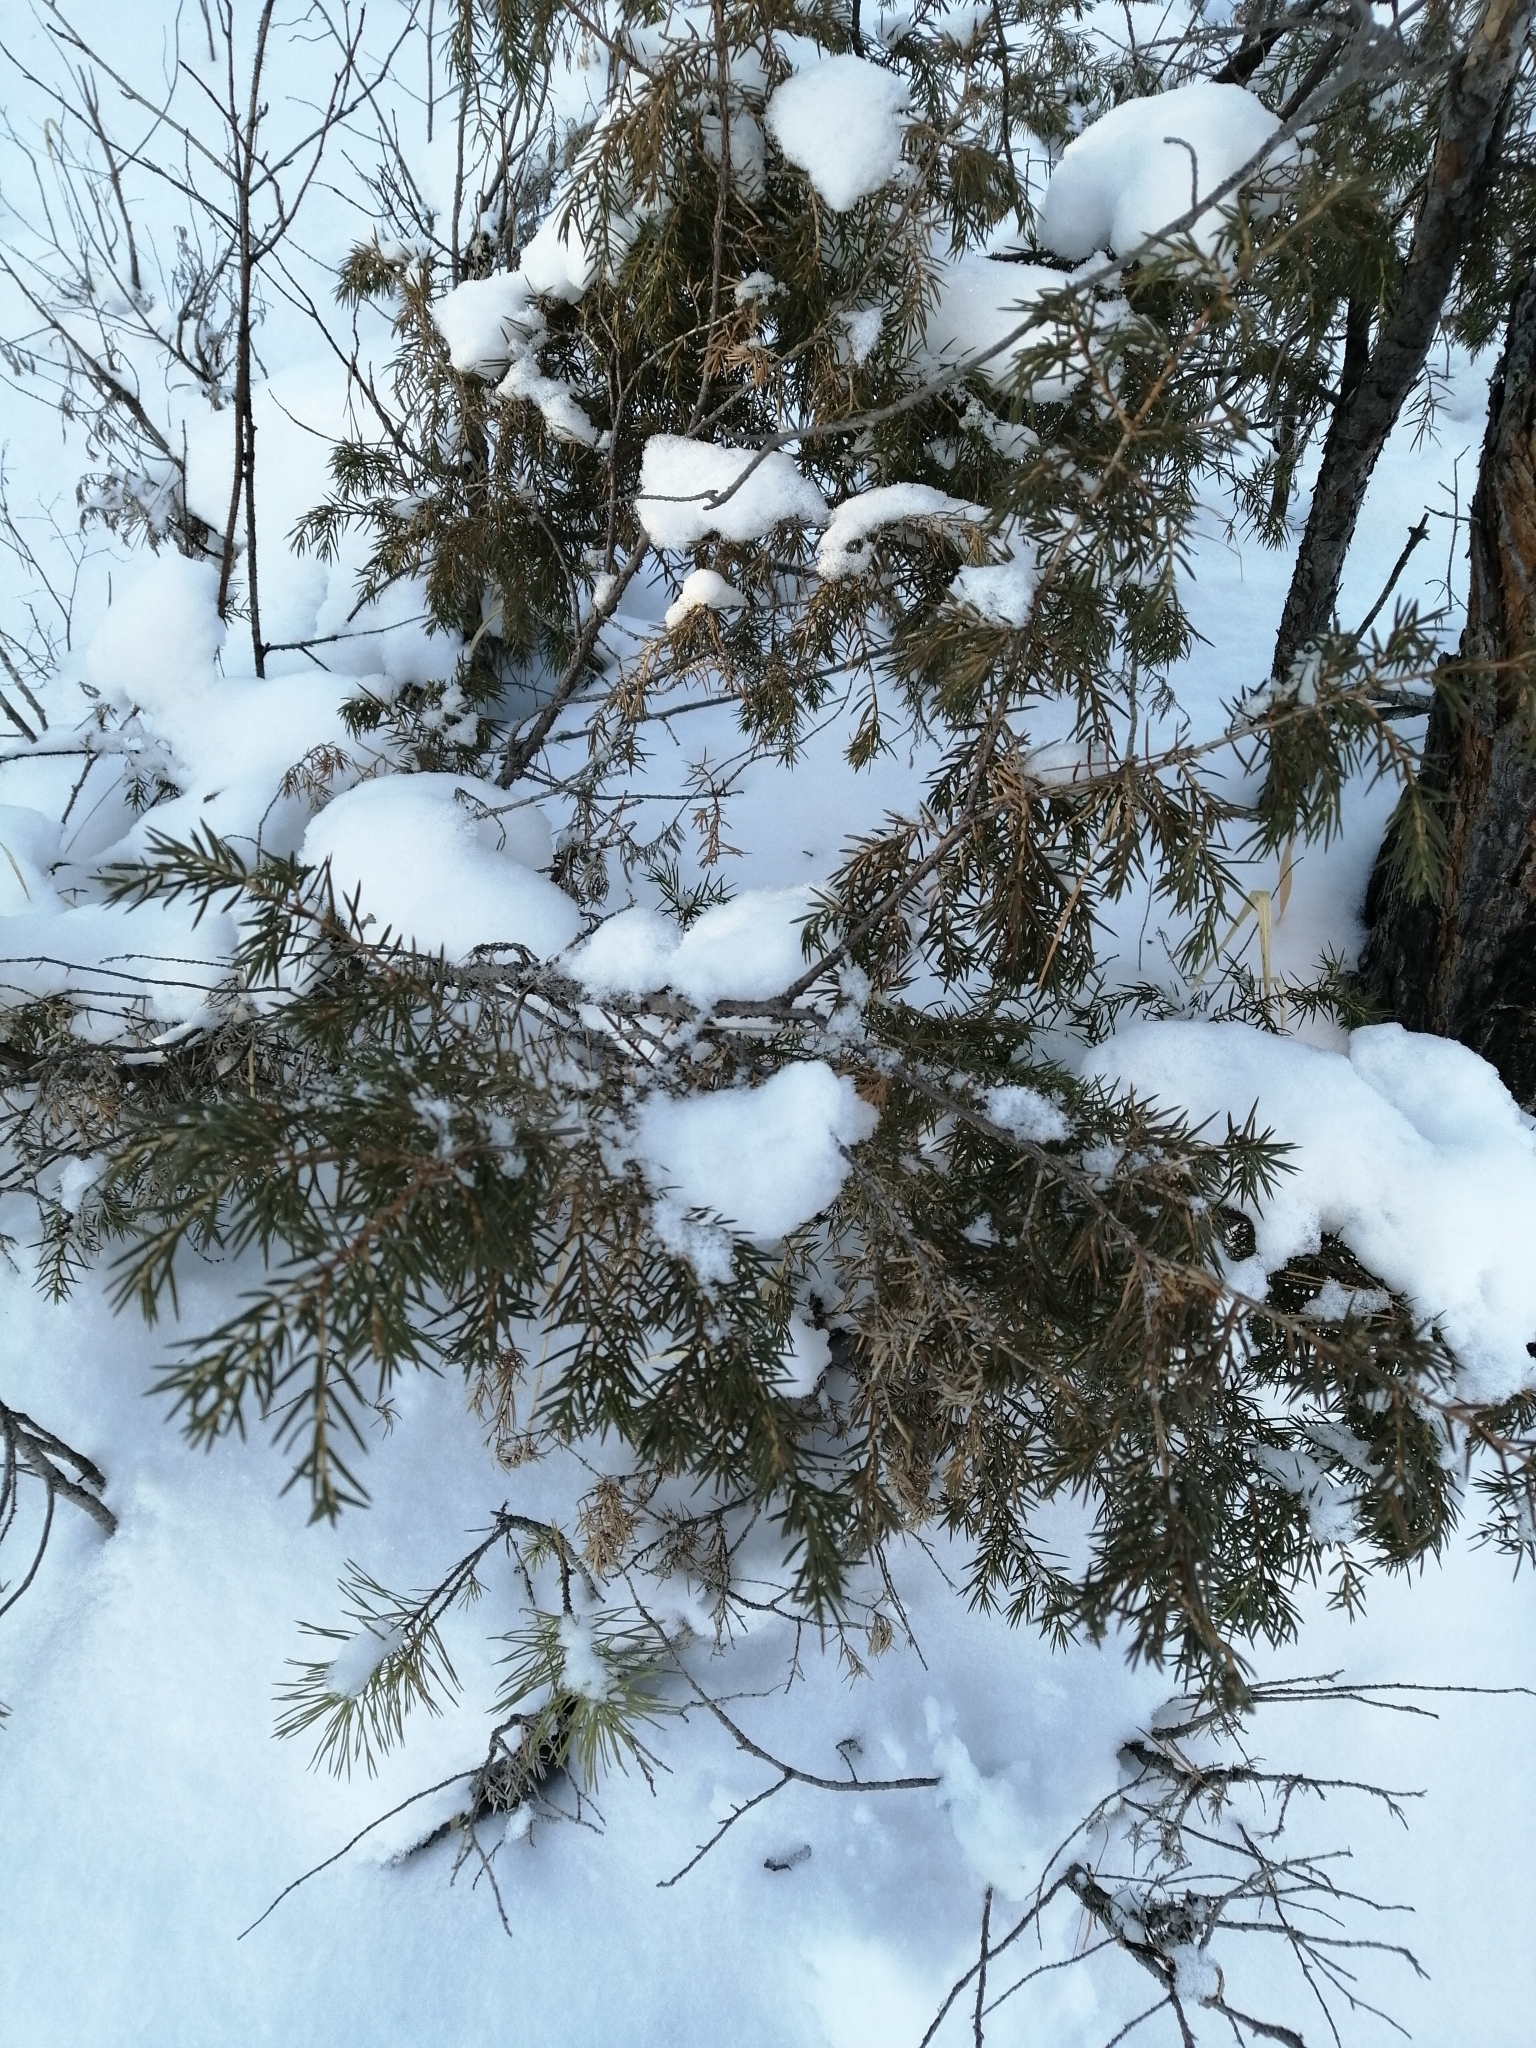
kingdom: Plantae
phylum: Tracheophyta
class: Pinopsida
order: Pinales
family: Cupressaceae
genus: Juniperus
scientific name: Juniperus communis
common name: Common juniper
